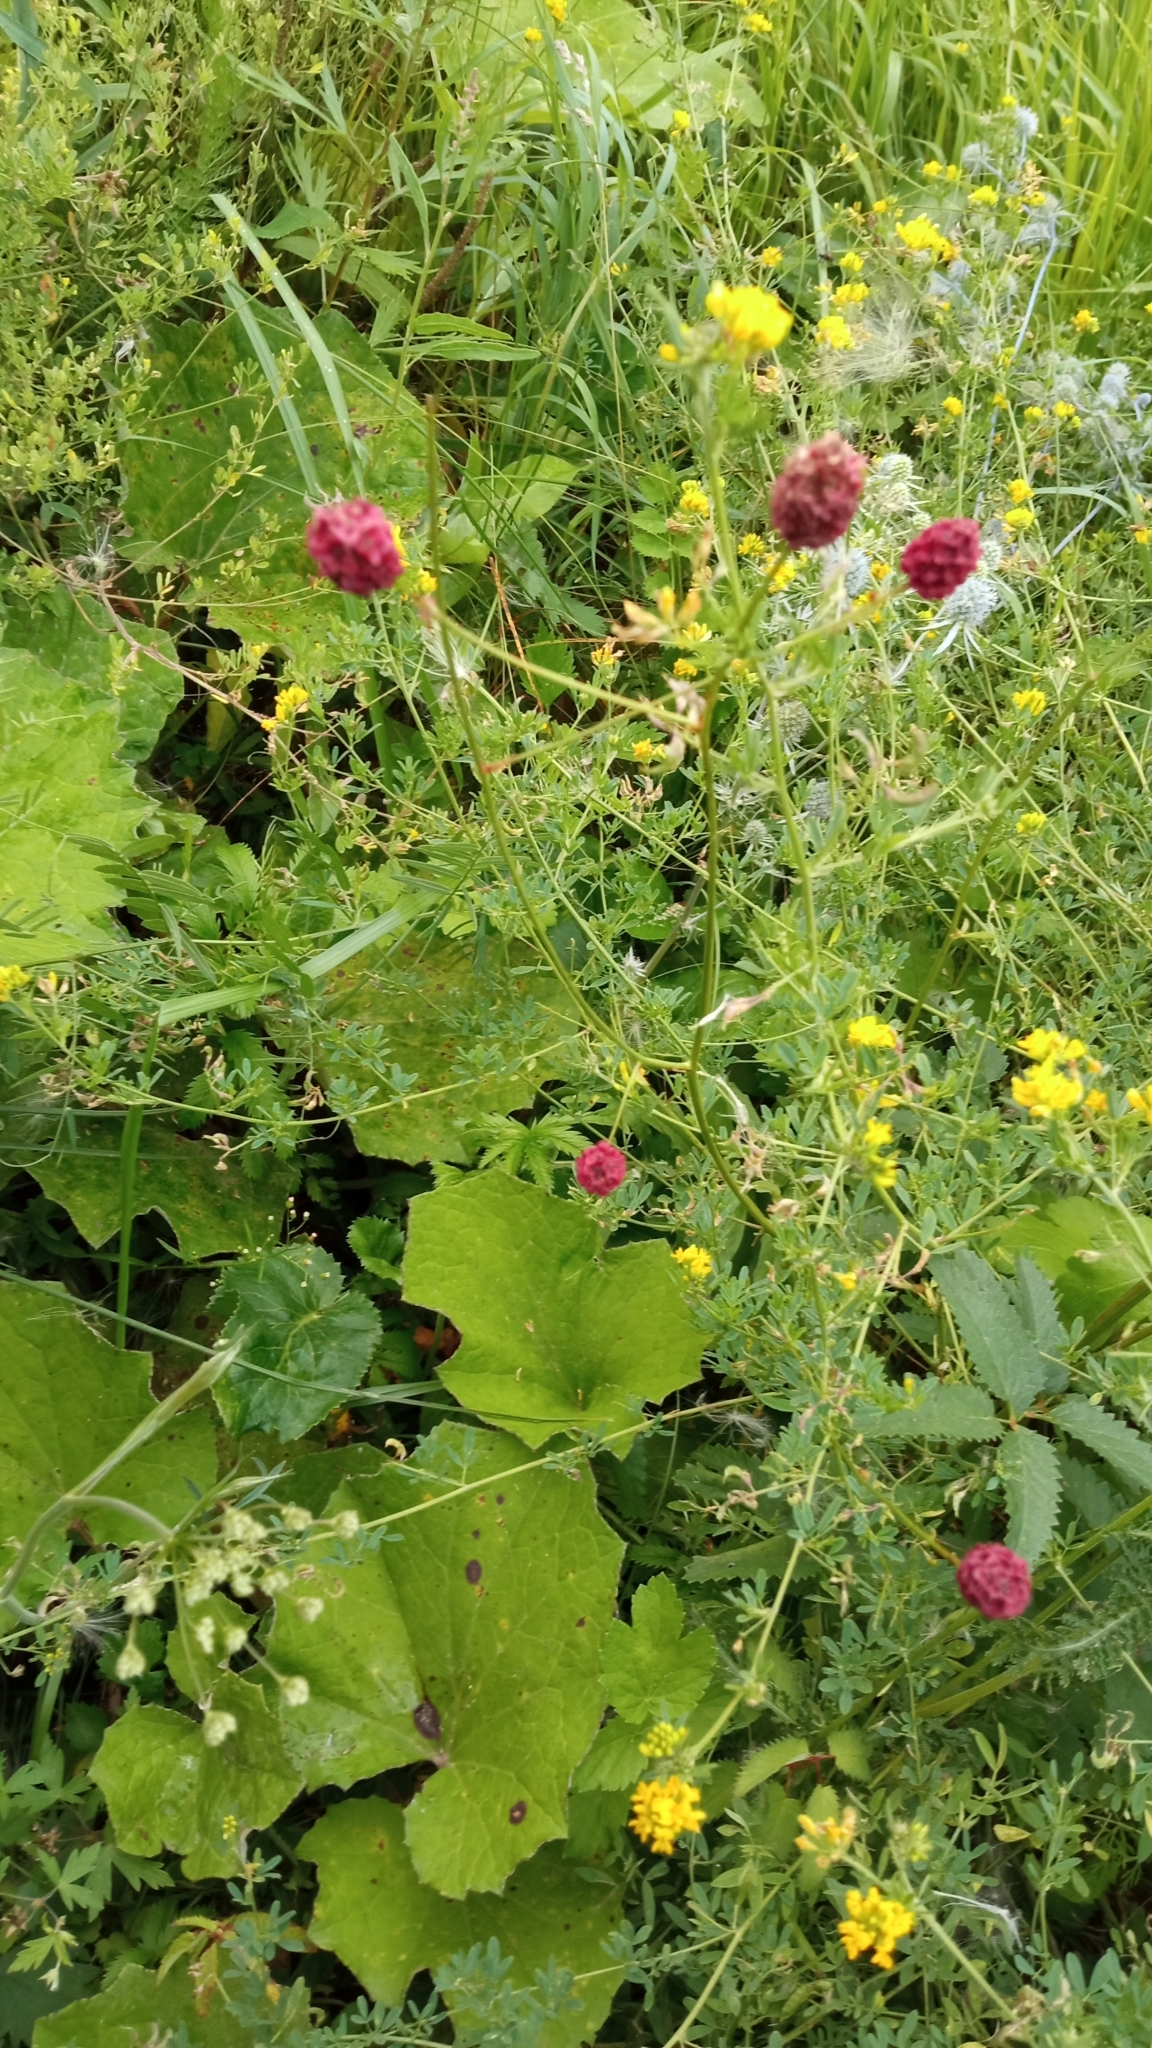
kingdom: Plantae
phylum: Tracheophyta
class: Magnoliopsida
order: Rosales
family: Rosaceae
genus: Sanguisorba
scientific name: Sanguisorba officinalis
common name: Great burnet
